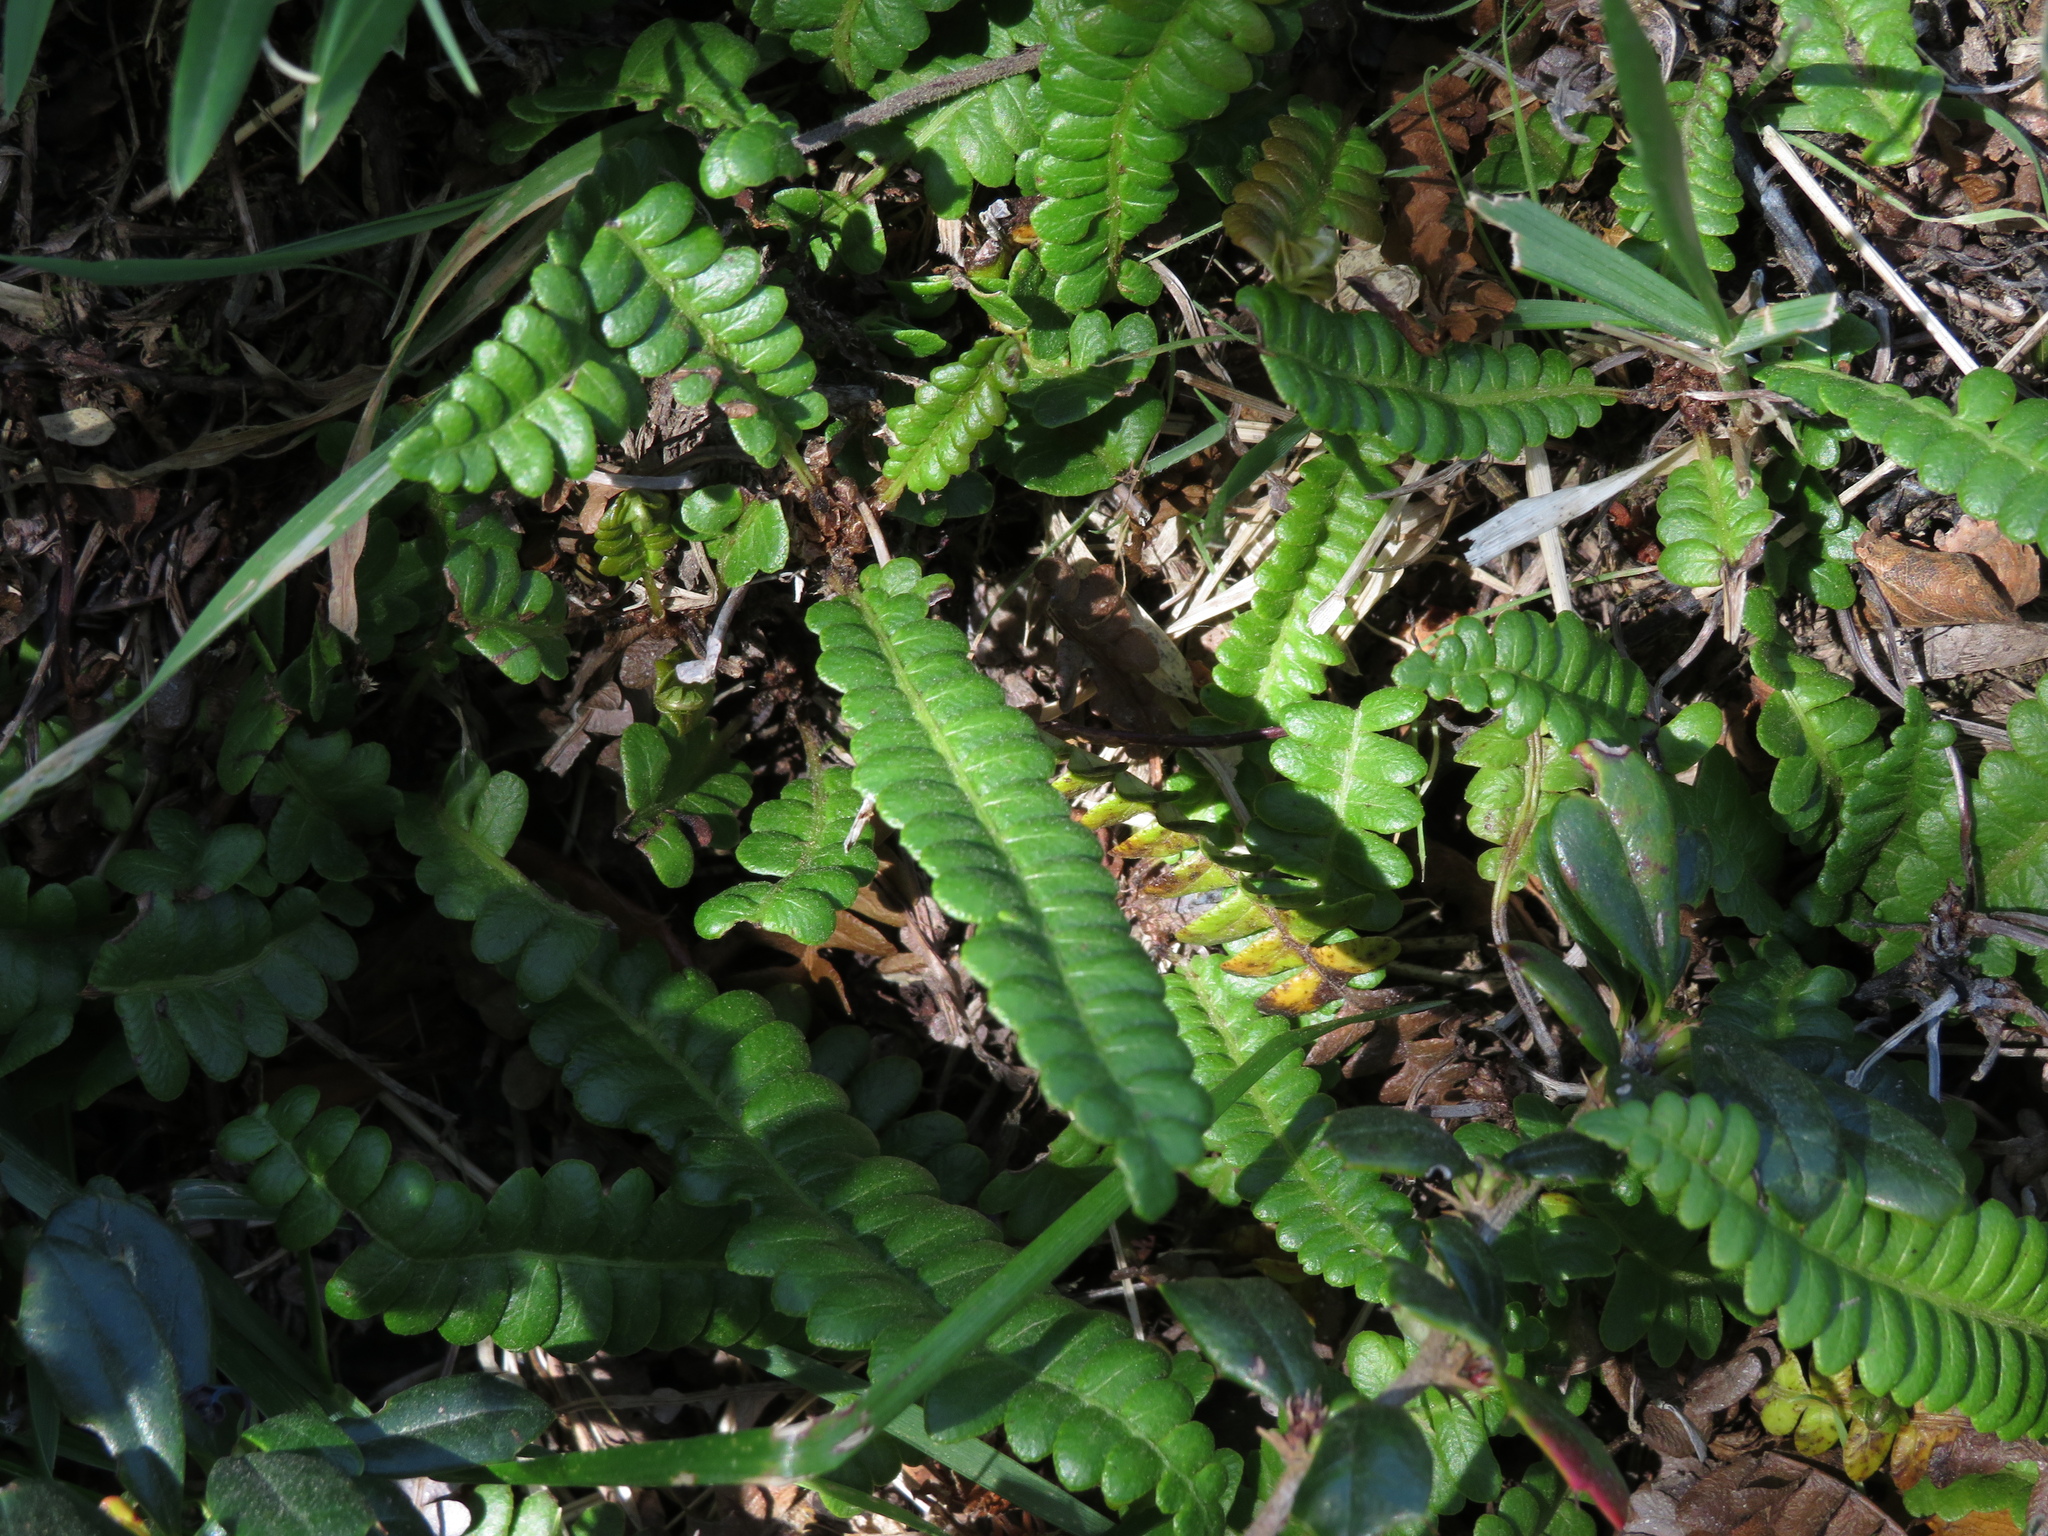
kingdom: Plantae
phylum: Tracheophyta
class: Polypodiopsida
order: Polypodiales
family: Blechnaceae
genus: Austroblechnum
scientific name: Austroblechnum penna-marina
